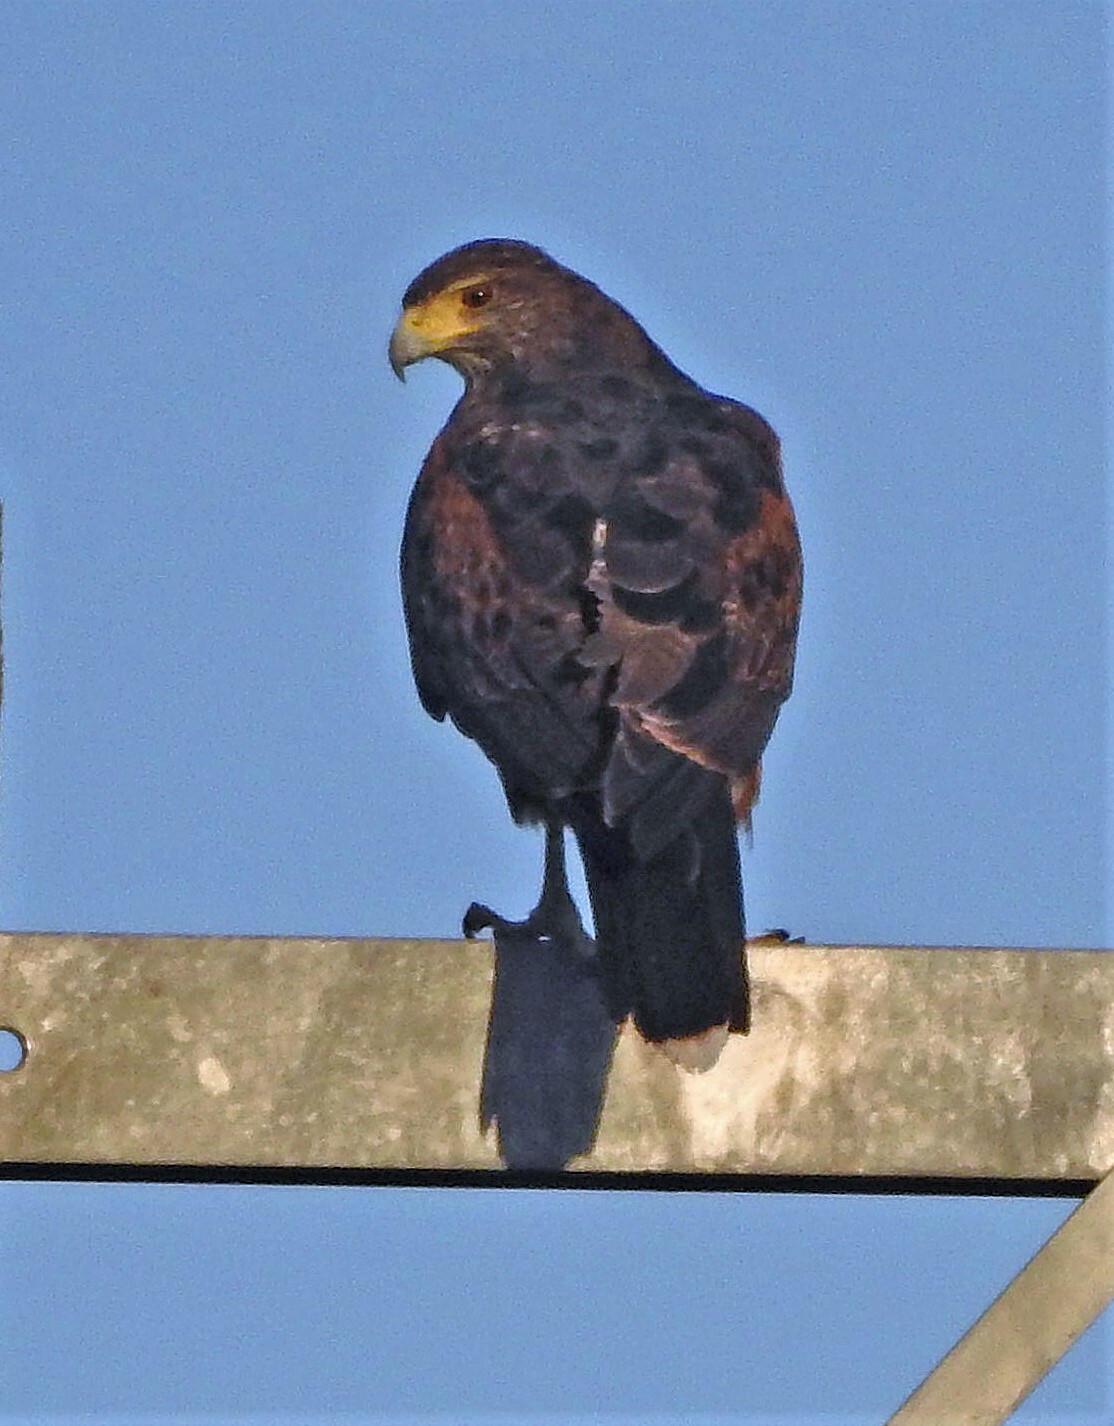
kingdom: Animalia
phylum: Chordata
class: Aves
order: Accipitriformes
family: Accipitridae
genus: Parabuteo
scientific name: Parabuteo unicinctus
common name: Harris's hawk
